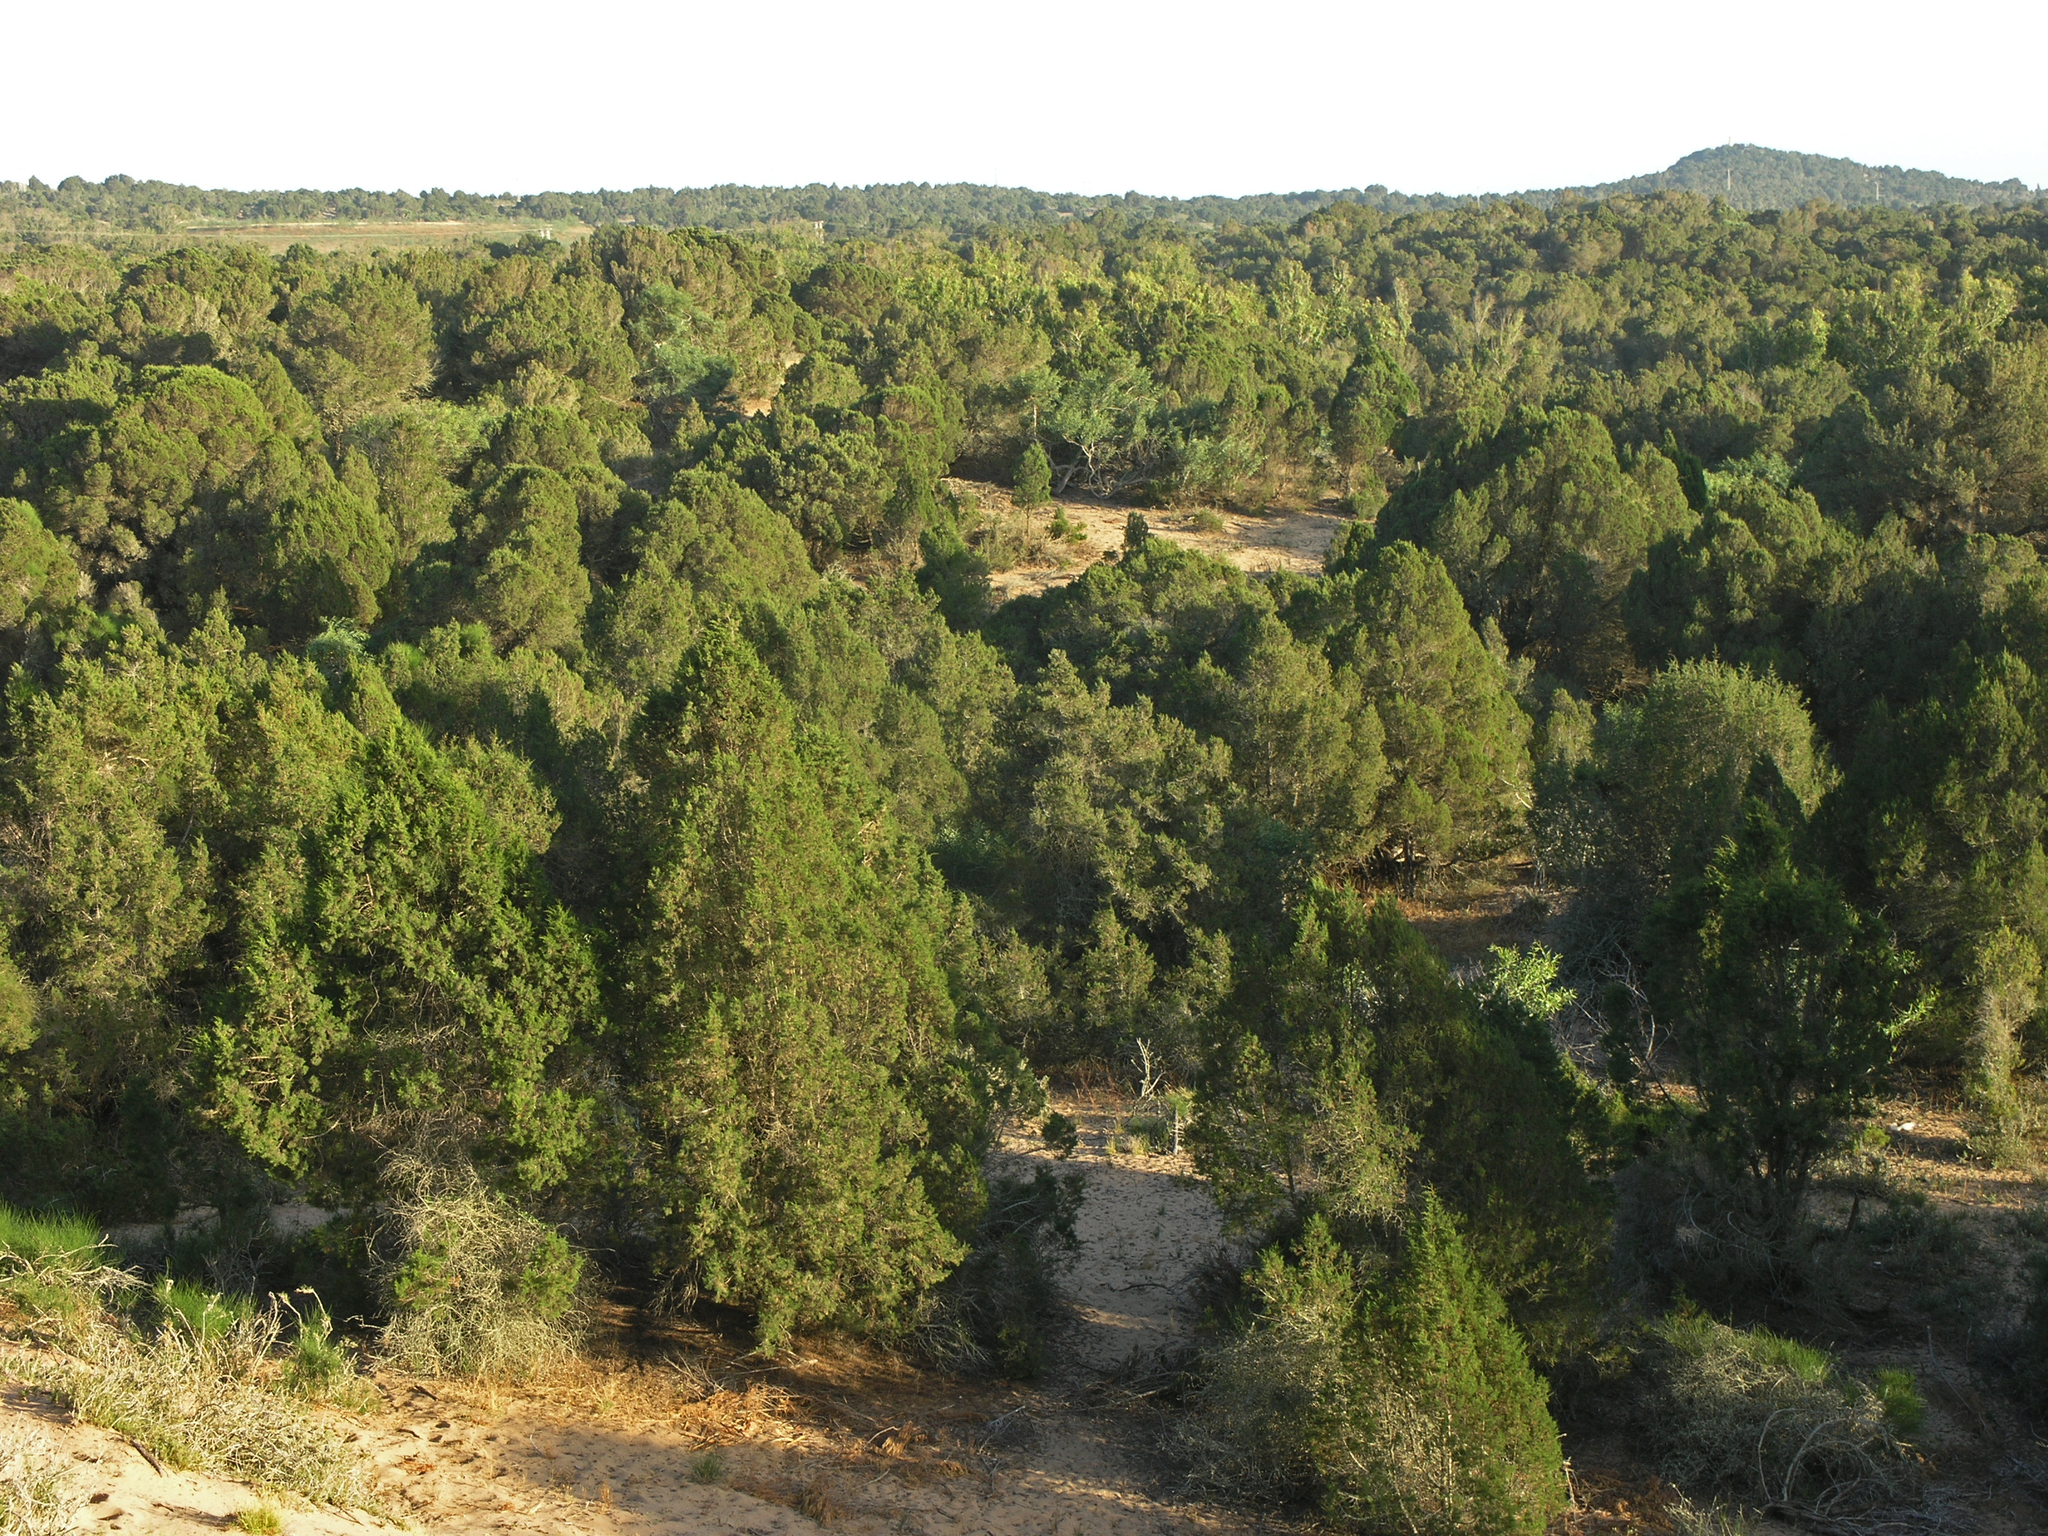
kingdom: Plantae
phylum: Tracheophyta
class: Pinopsida
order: Pinales
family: Cupressaceae
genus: Juniperus
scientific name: Juniperus phoenicea
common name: Phoenician juniper
